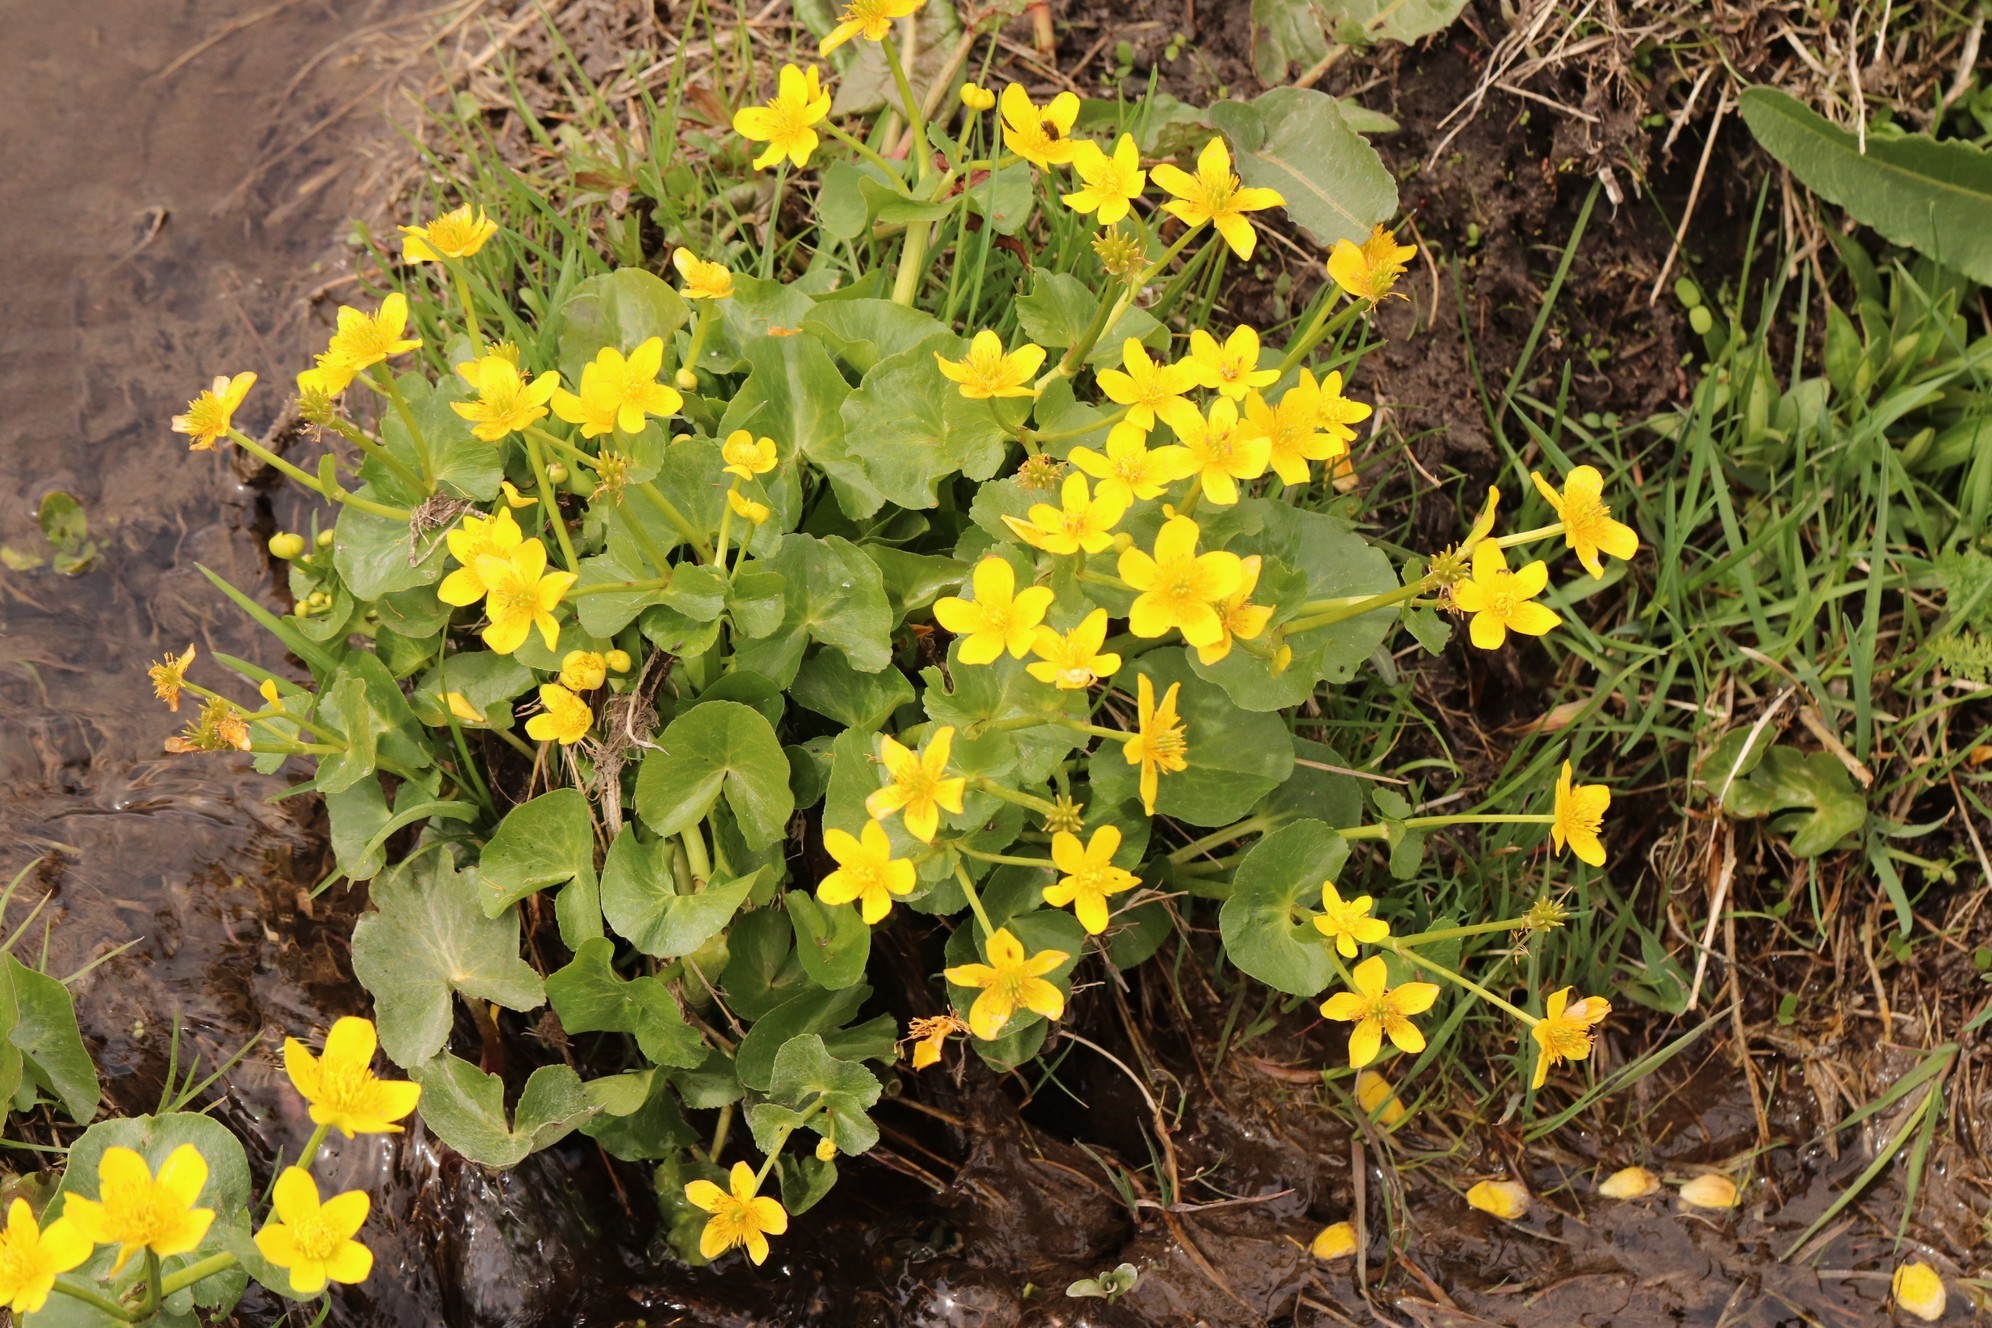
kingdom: Plantae
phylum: Tracheophyta
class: Magnoliopsida
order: Ranunculales
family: Ranunculaceae
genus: Caltha
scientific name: Caltha palustris
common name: Marsh marigold
